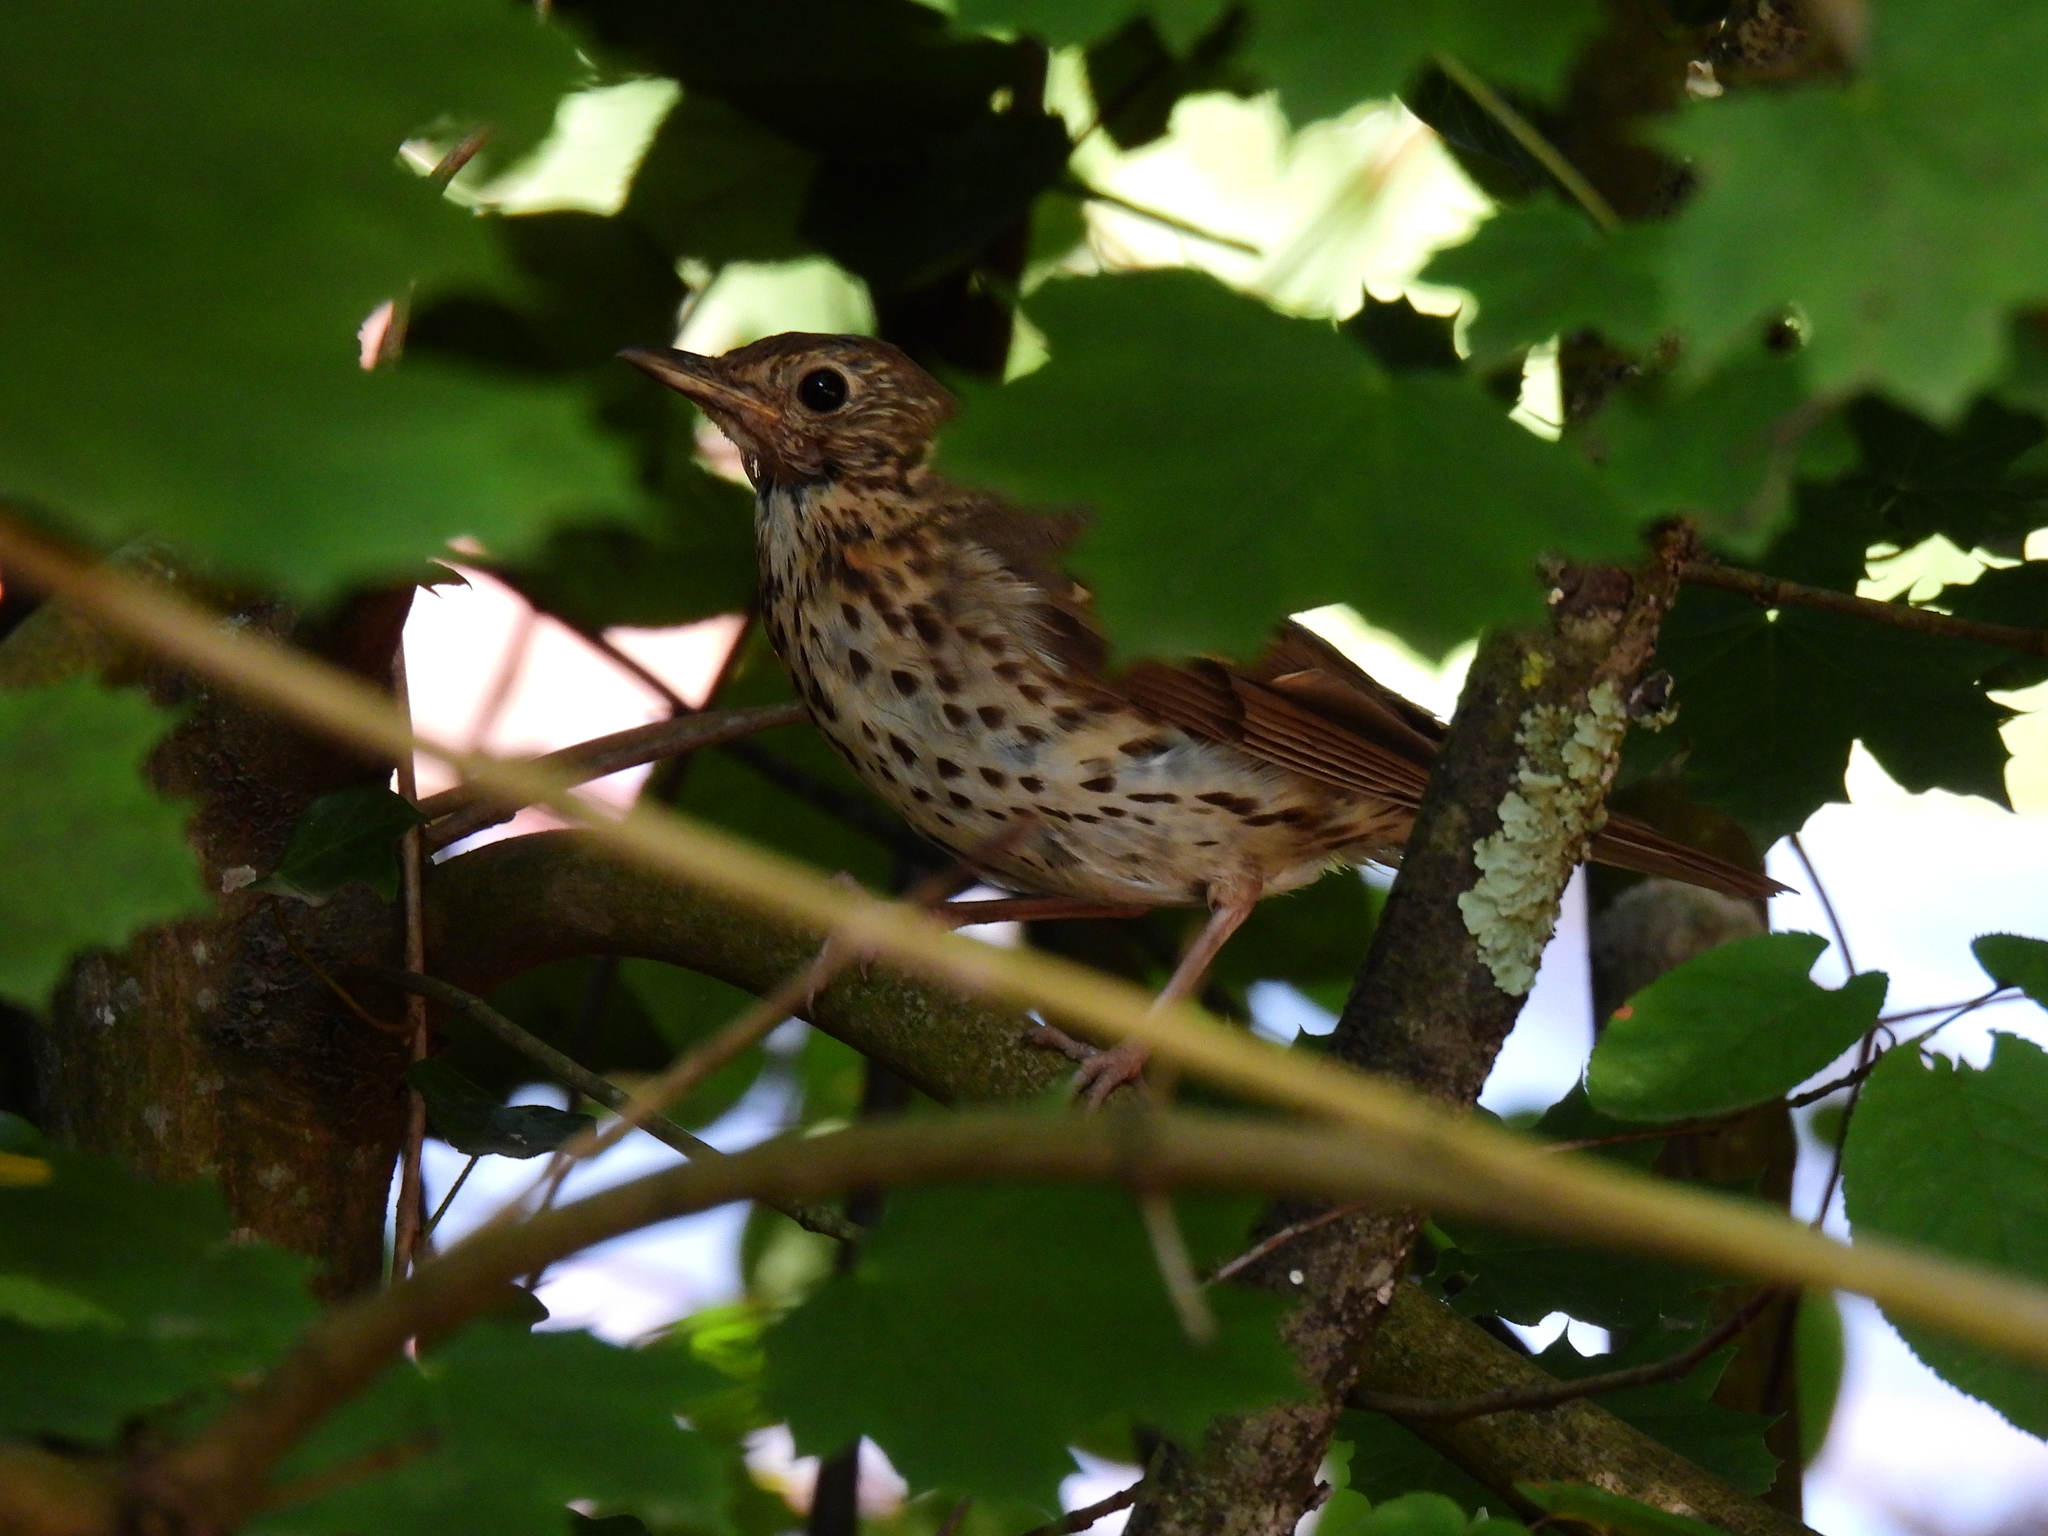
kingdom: Animalia
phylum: Chordata
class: Aves
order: Passeriformes
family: Turdidae
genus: Turdus
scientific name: Turdus philomelos
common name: Song thrush
